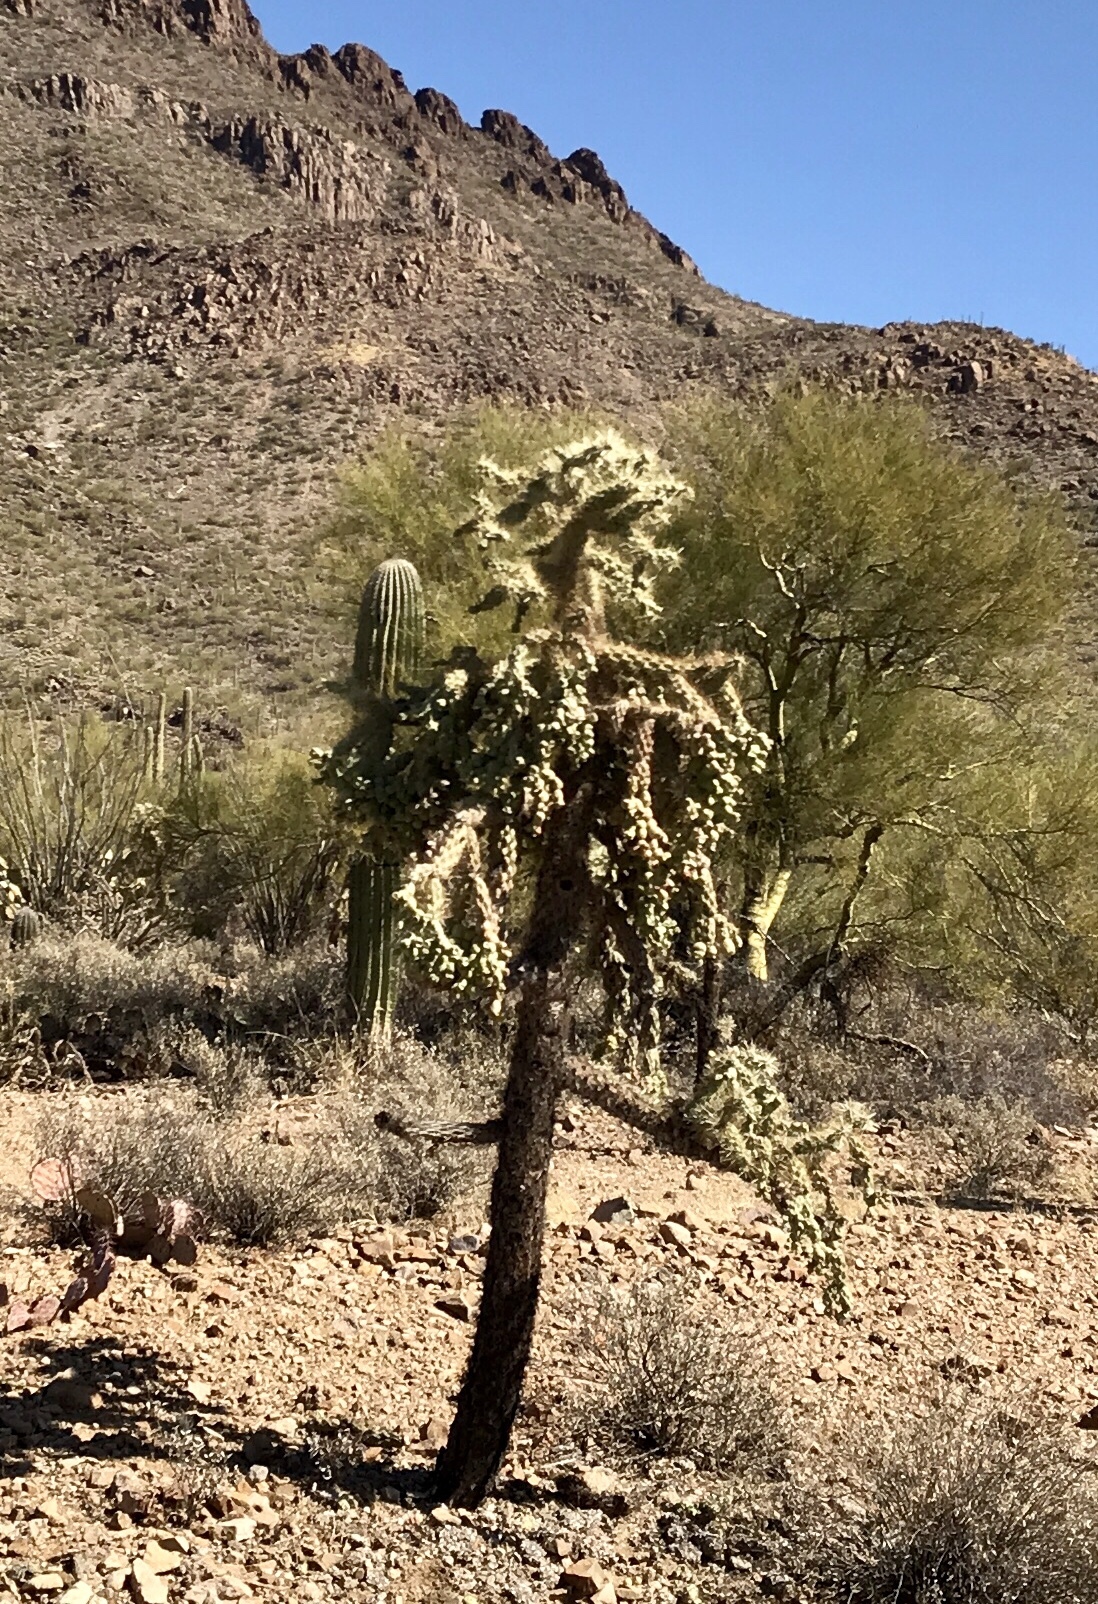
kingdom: Plantae
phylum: Tracheophyta
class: Magnoliopsida
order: Caryophyllales
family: Cactaceae
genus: Cylindropuntia
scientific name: Cylindropuntia fulgida
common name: Jumping cholla
